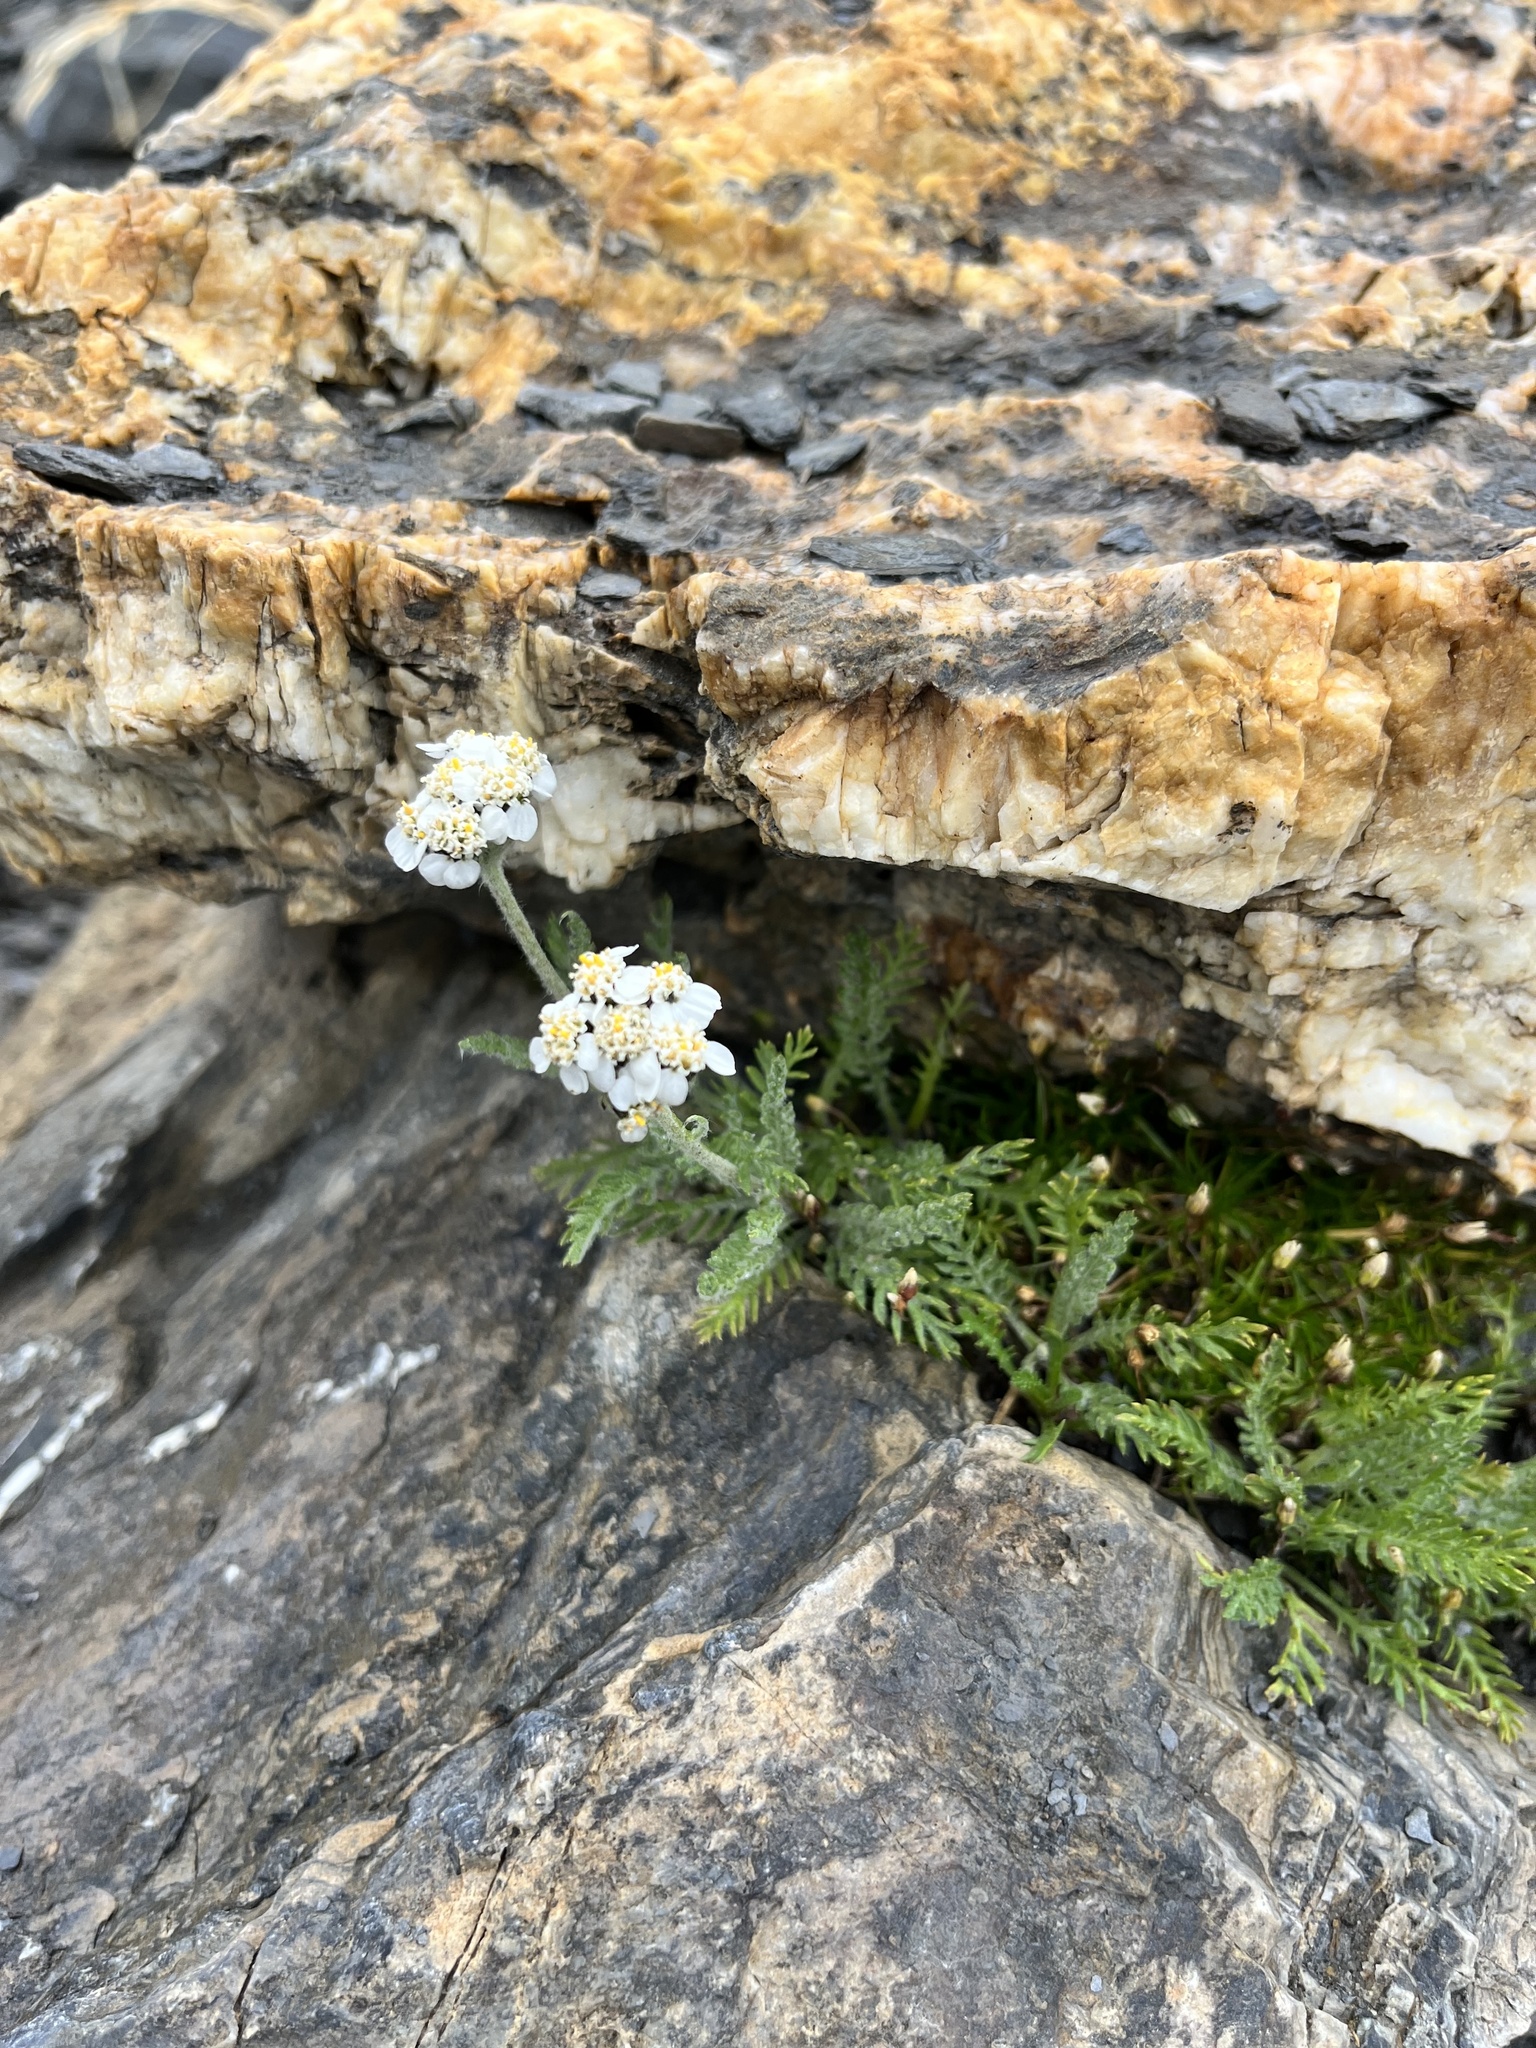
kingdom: Plantae
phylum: Tracheophyta
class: Magnoliopsida
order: Asterales
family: Asteraceae
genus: Achillea
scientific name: Achillea nana
